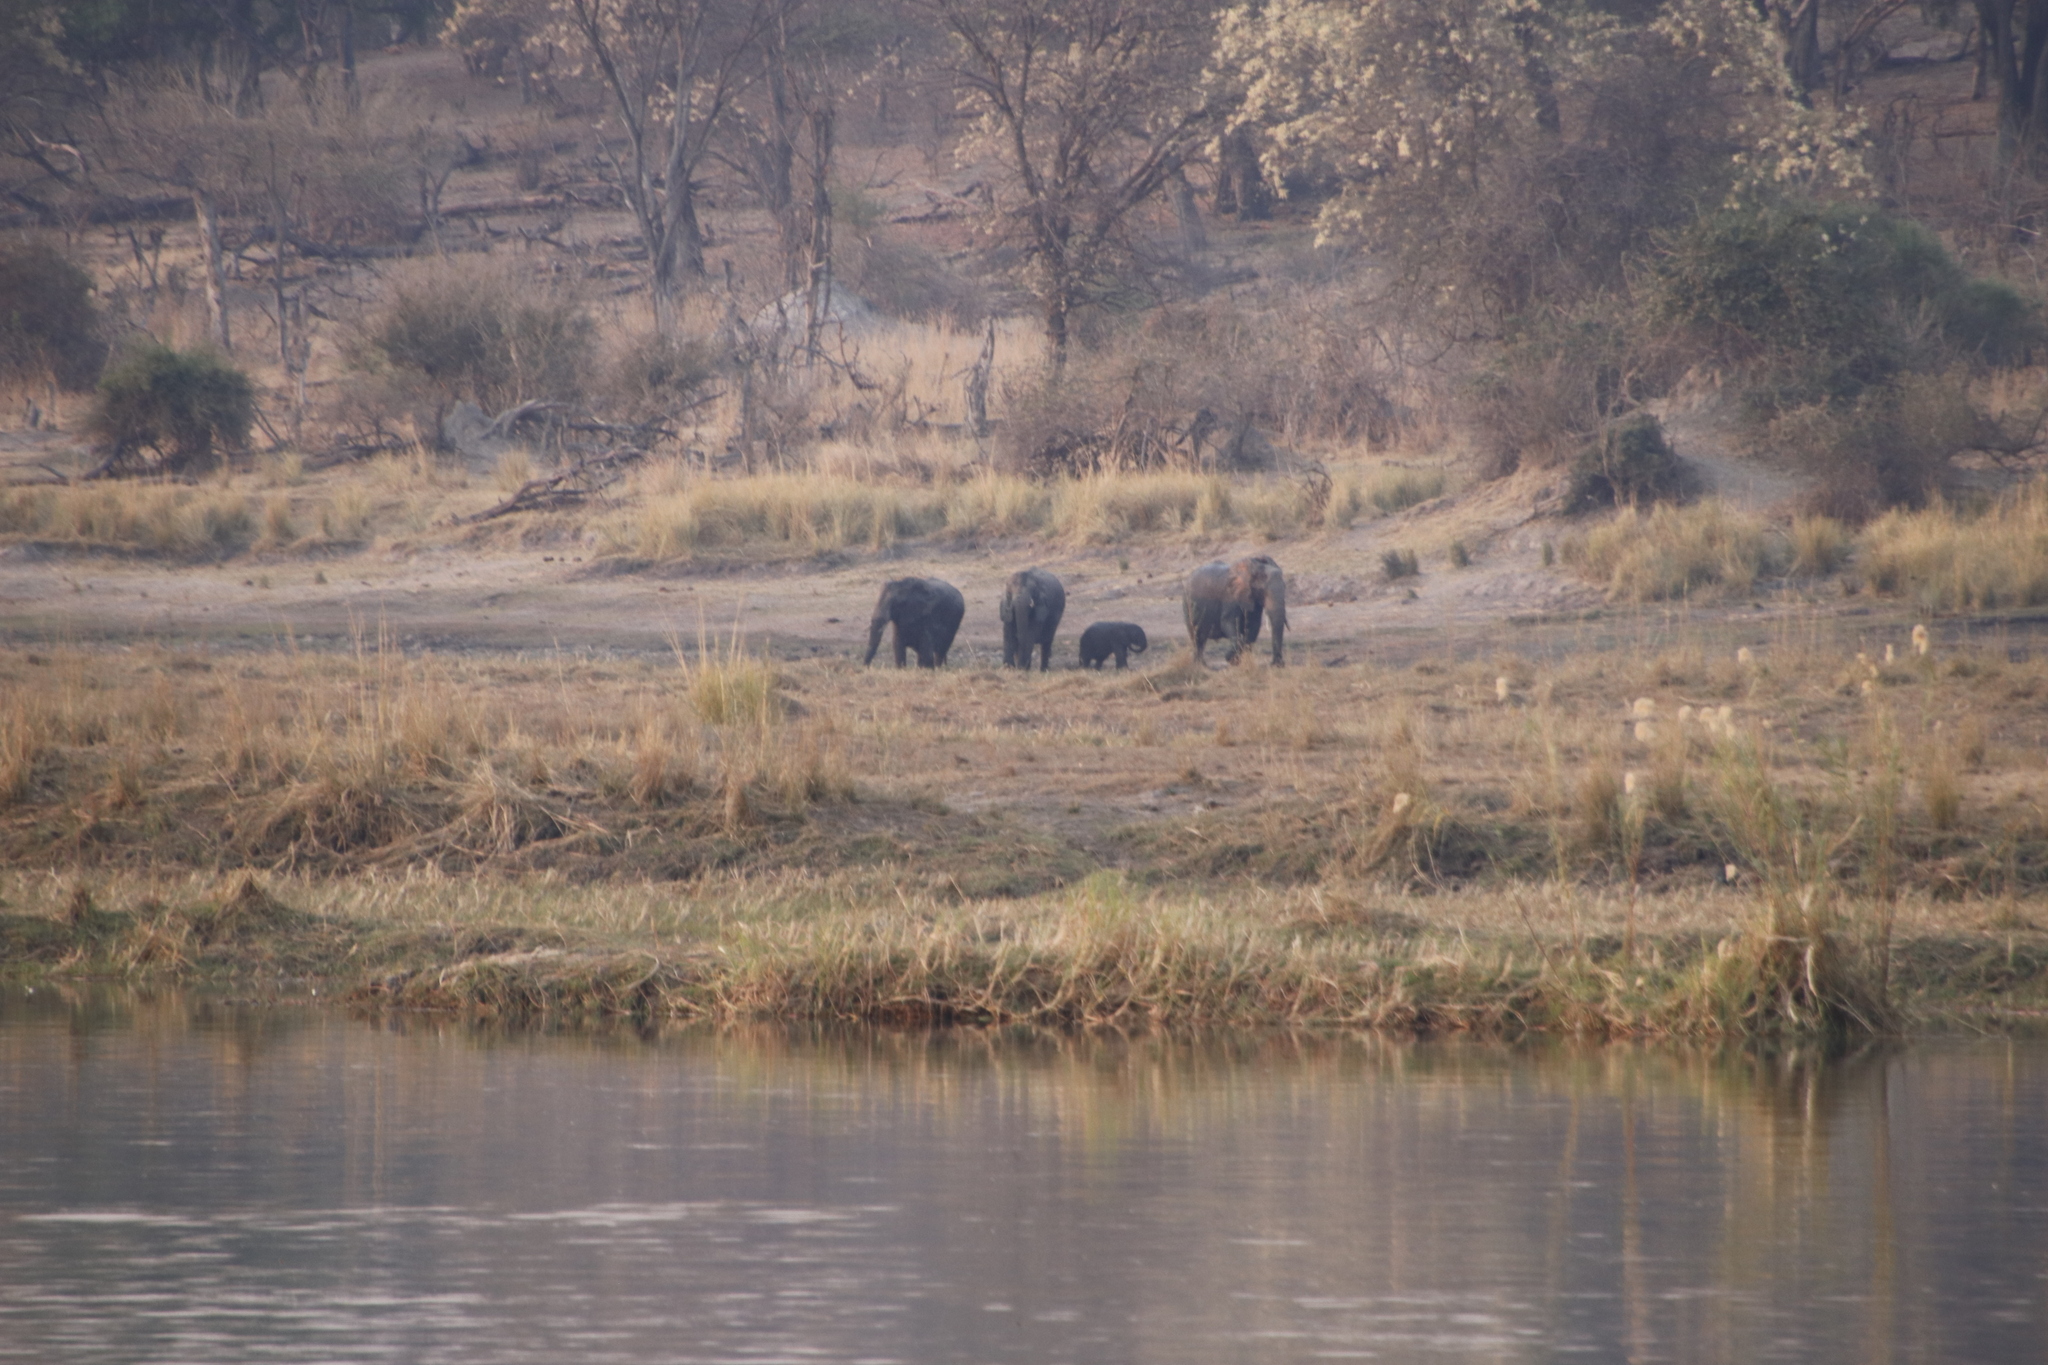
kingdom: Animalia
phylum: Chordata
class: Mammalia
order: Proboscidea
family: Elephantidae
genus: Loxodonta
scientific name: Loxodonta africana
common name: African elephant
